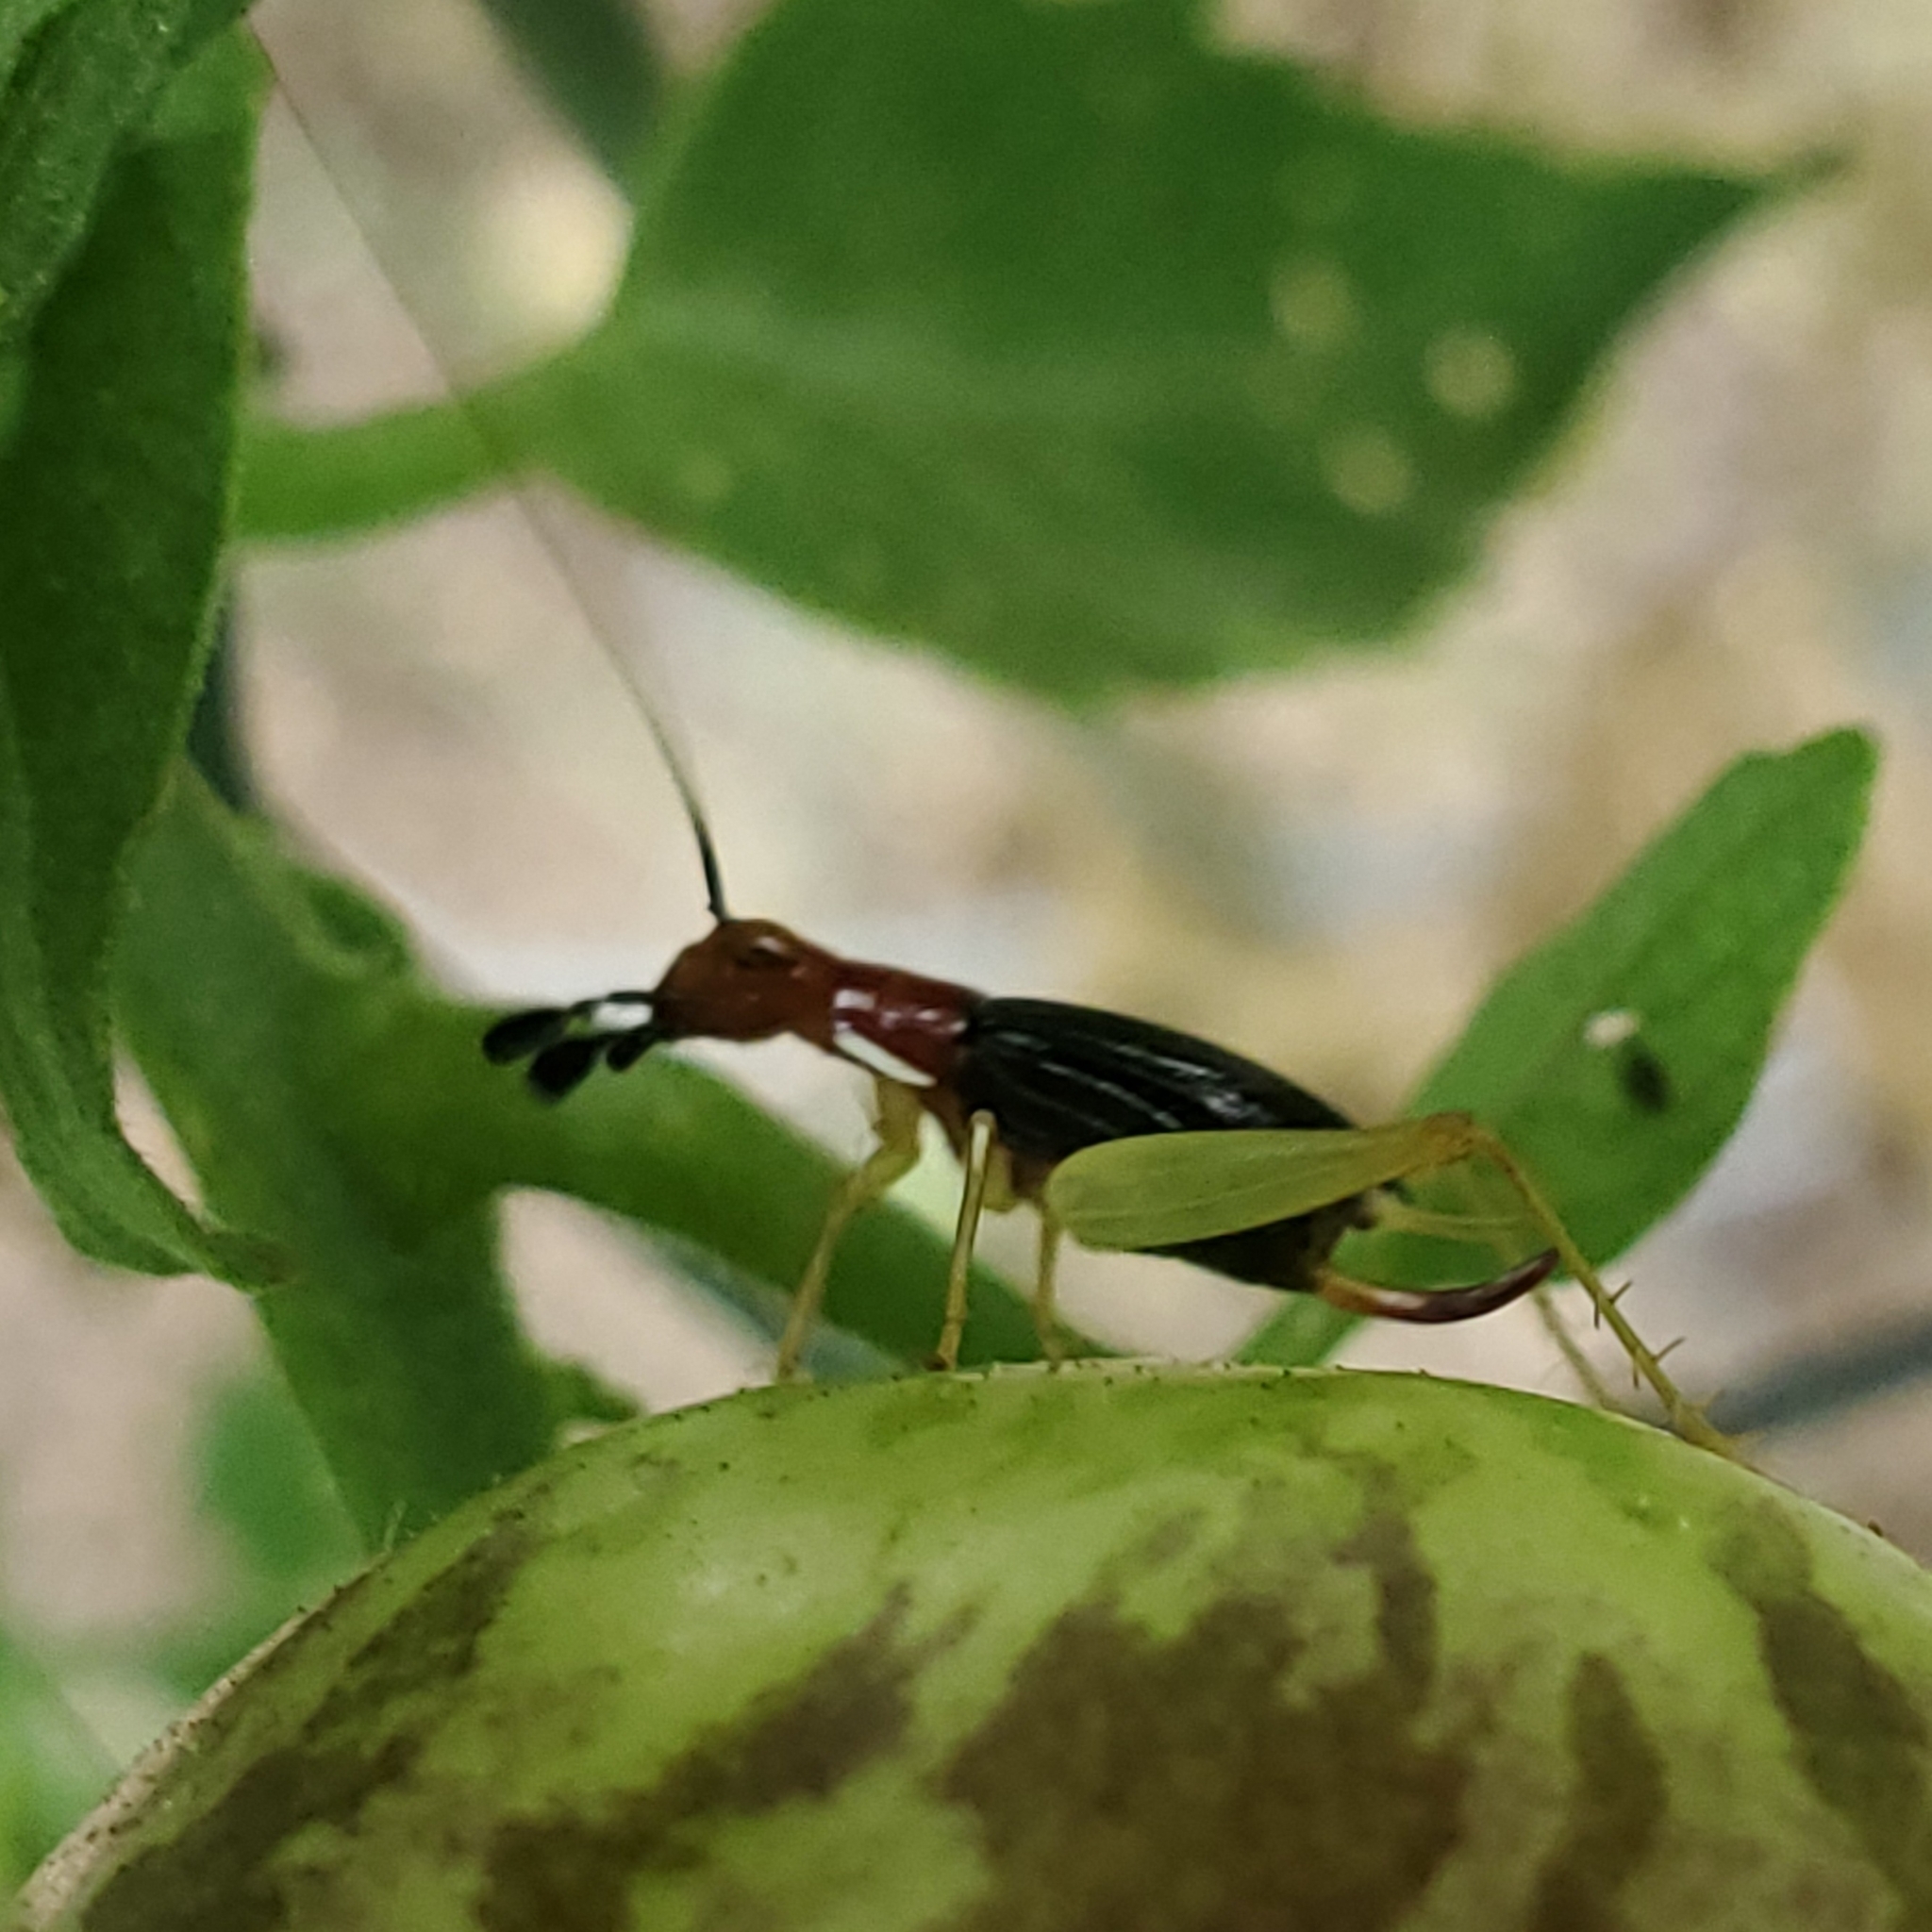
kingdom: Animalia
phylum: Arthropoda
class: Insecta
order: Orthoptera
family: Trigonidiidae
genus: Phyllopalpus
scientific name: Phyllopalpus pulchellus
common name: Handsome trig
